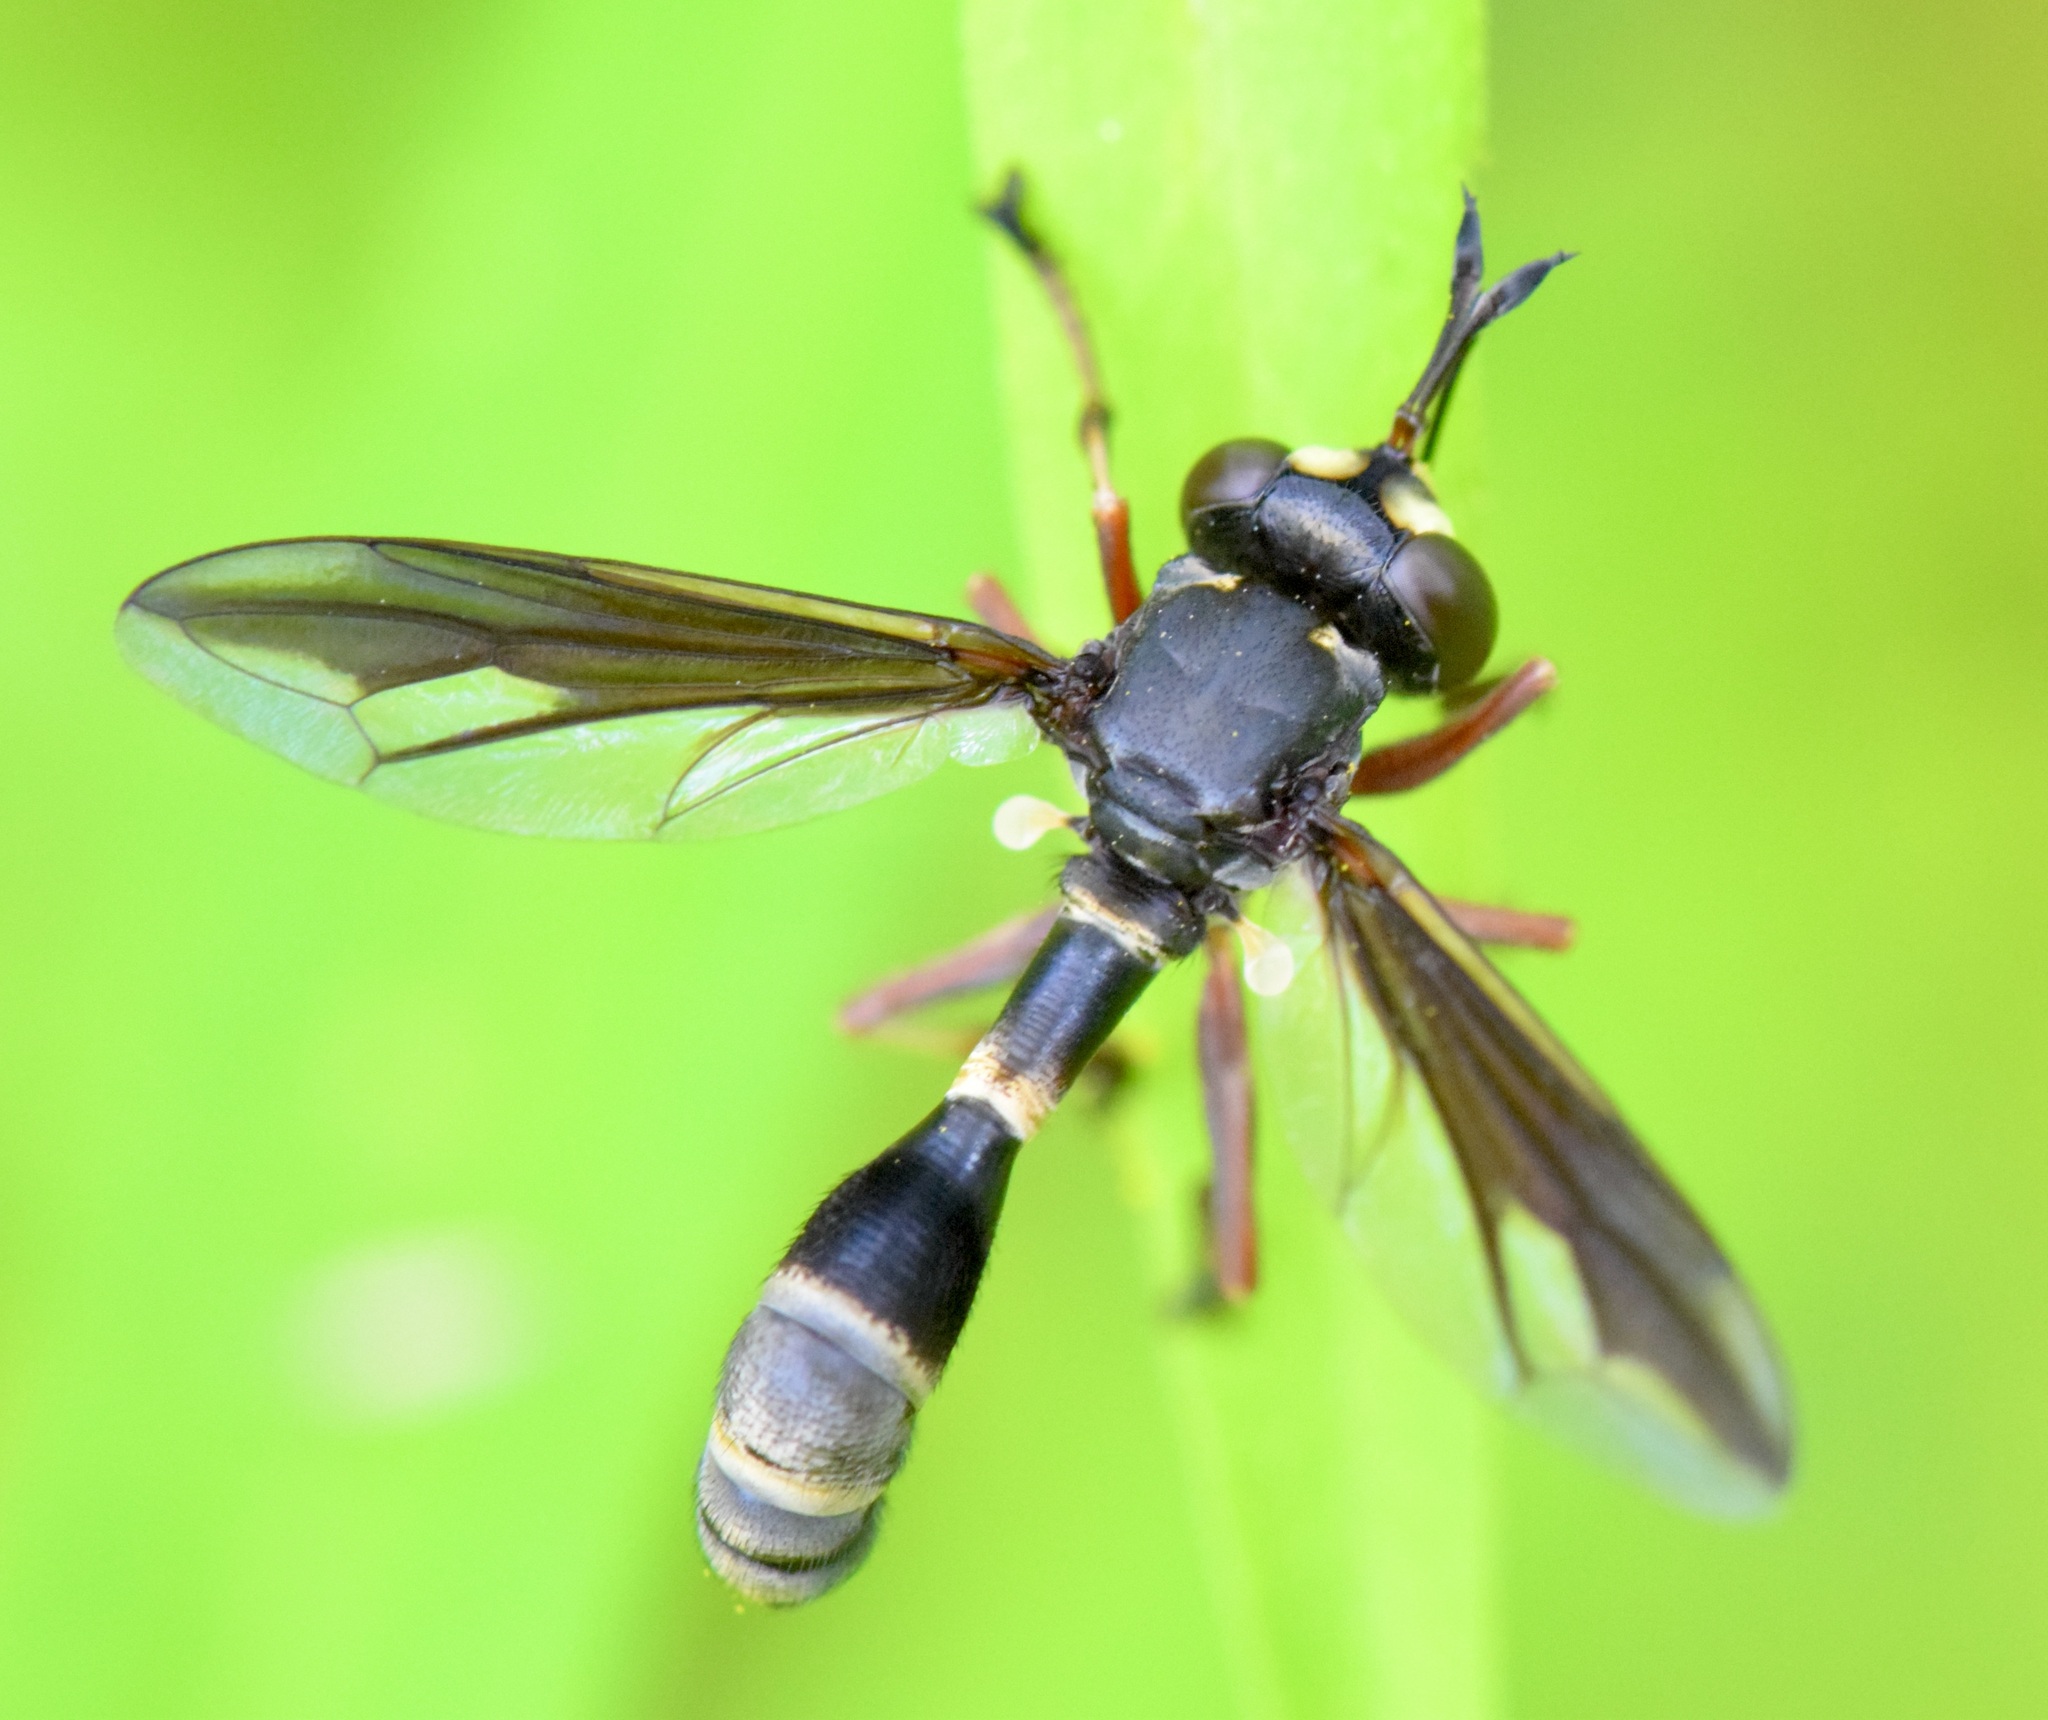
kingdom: Animalia
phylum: Arthropoda
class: Insecta
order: Diptera
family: Conopidae
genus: Physocephala
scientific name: Physocephala furcillata
